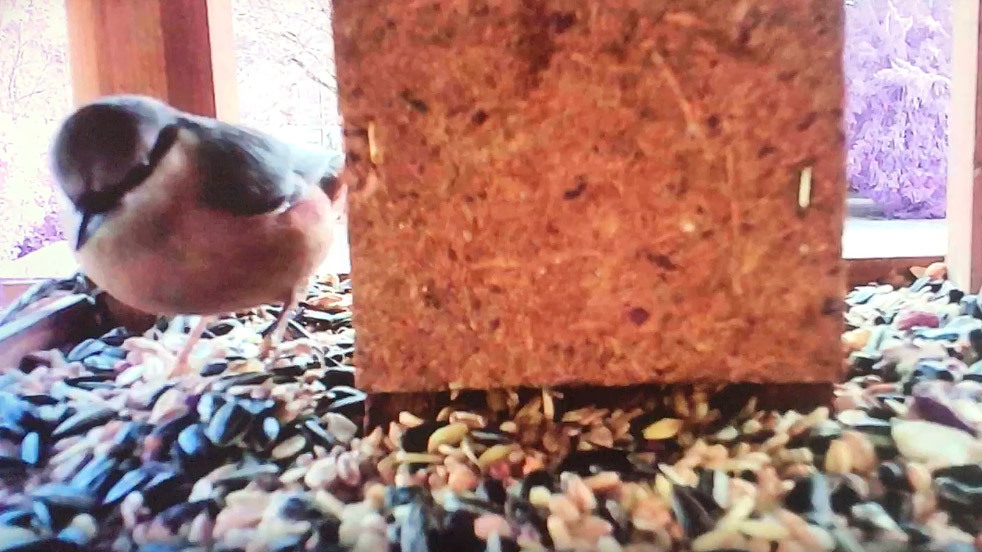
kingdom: Animalia
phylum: Chordata
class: Aves
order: Passeriformes
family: Sittidae
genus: Sitta
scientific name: Sitta europaea
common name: Eurasian nuthatch
